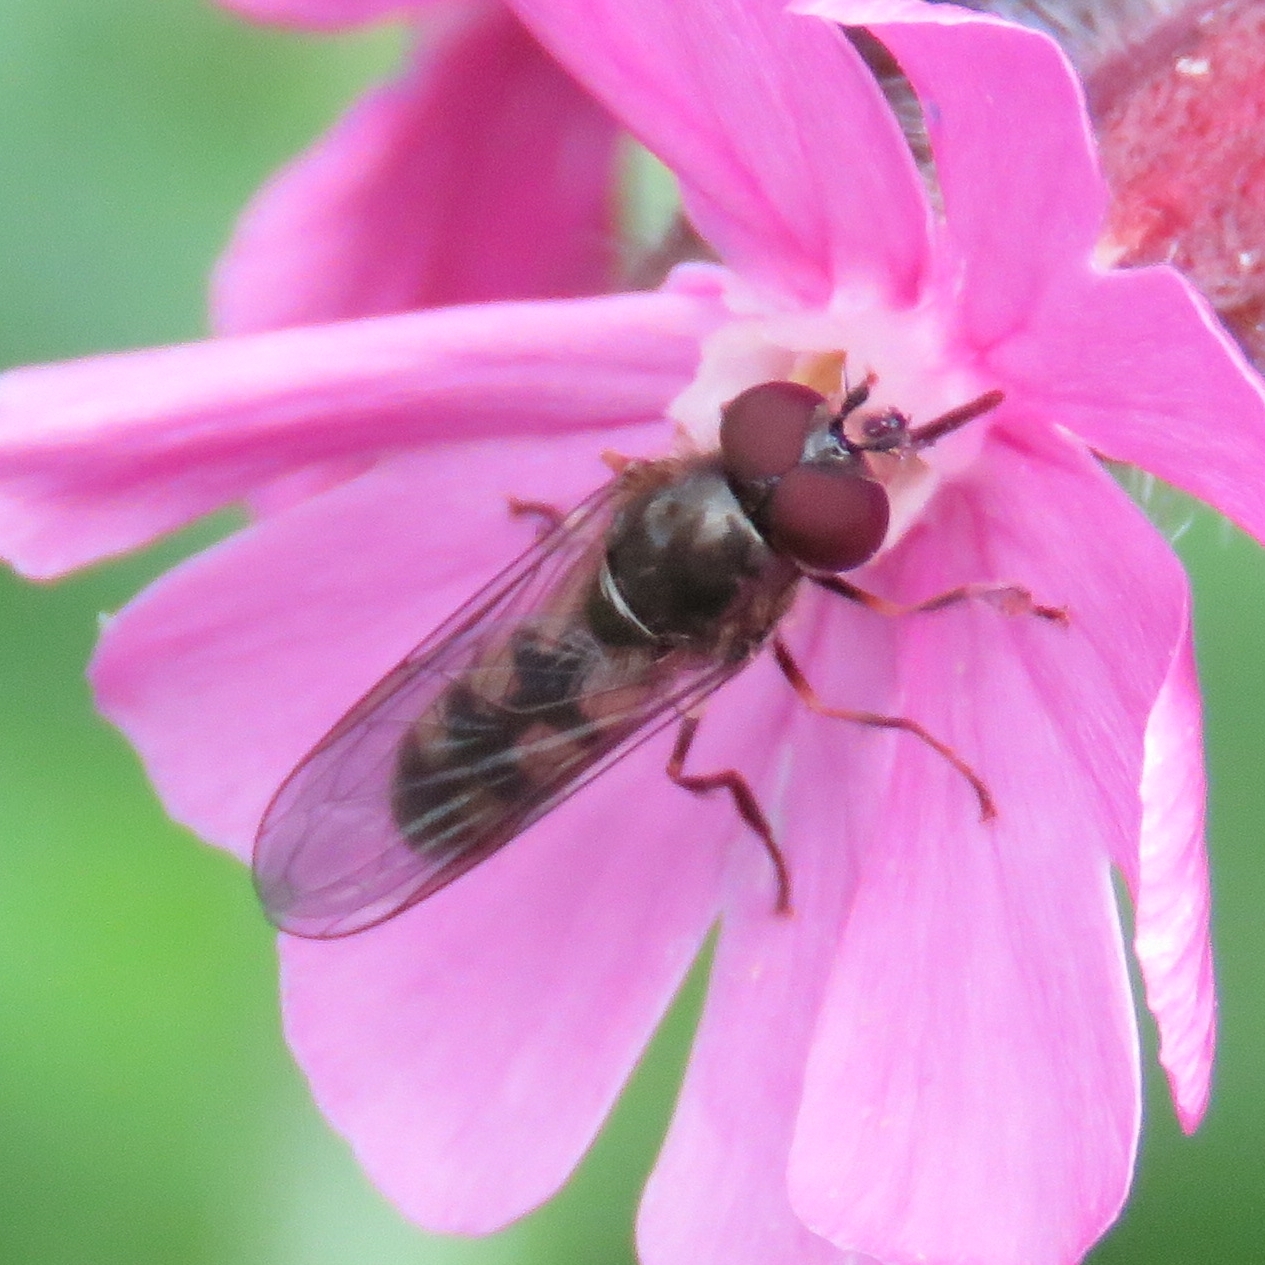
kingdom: Animalia
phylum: Arthropoda
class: Insecta
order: Diptera
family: Syrphidae
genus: Platycheirus
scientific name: Platycheirus ciliger
